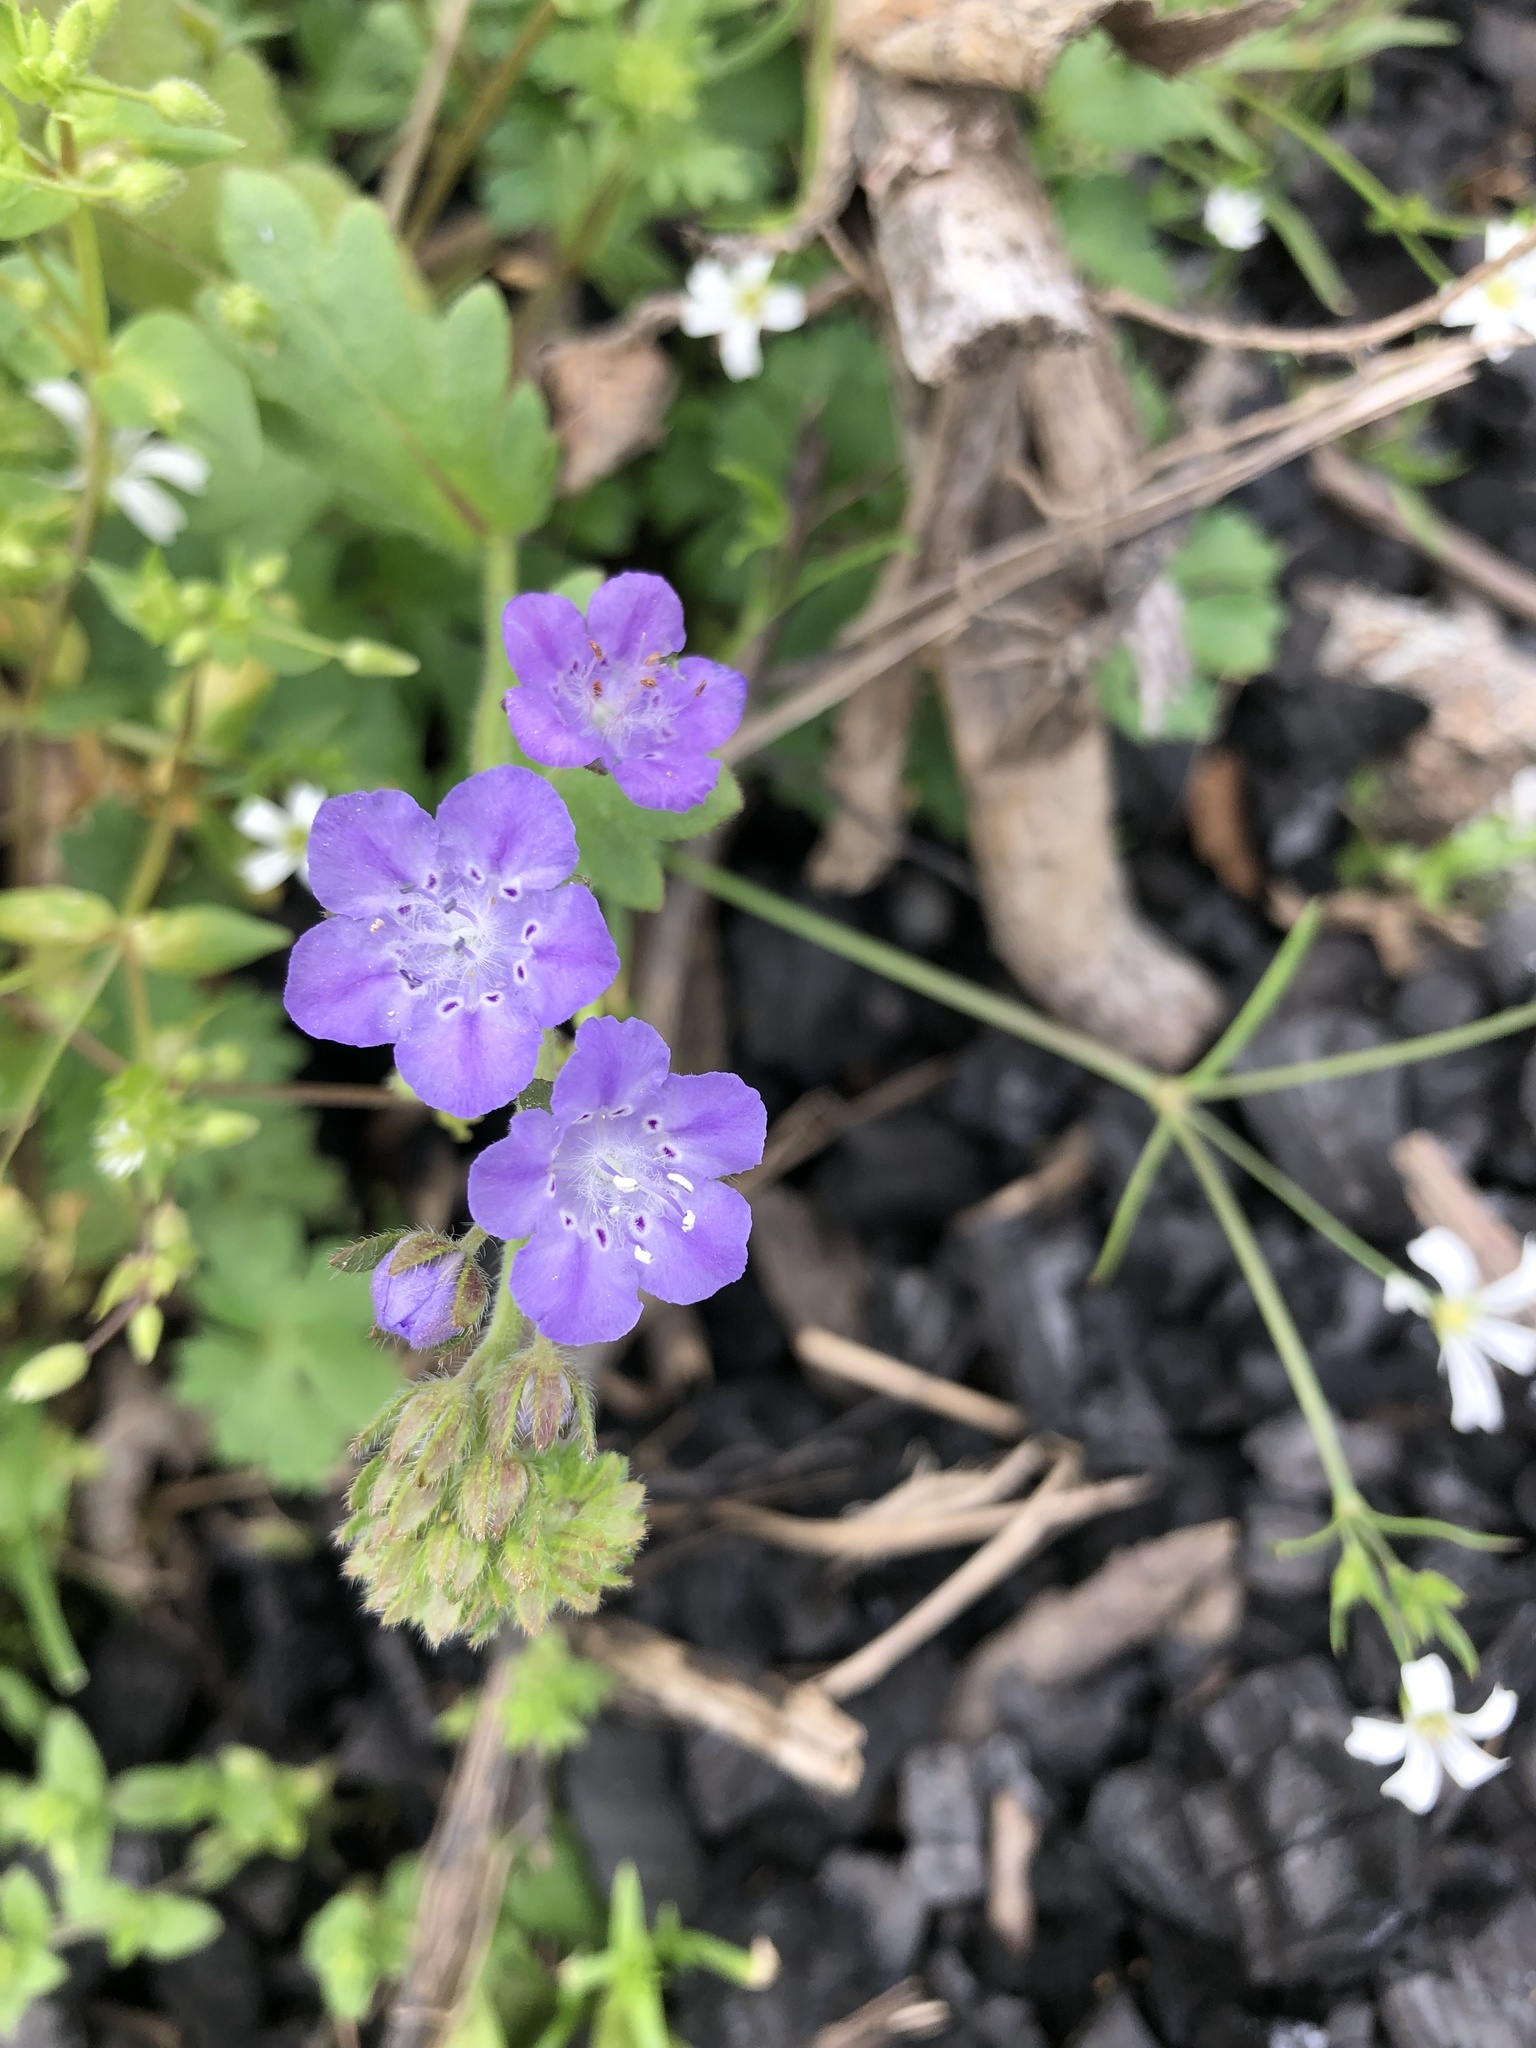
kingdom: Plantae
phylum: Tracheophyta
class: Magnoliopsida
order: Boraginales
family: Hydrophyllaceae
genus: Phacelia
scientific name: Phacelia hirsuta
